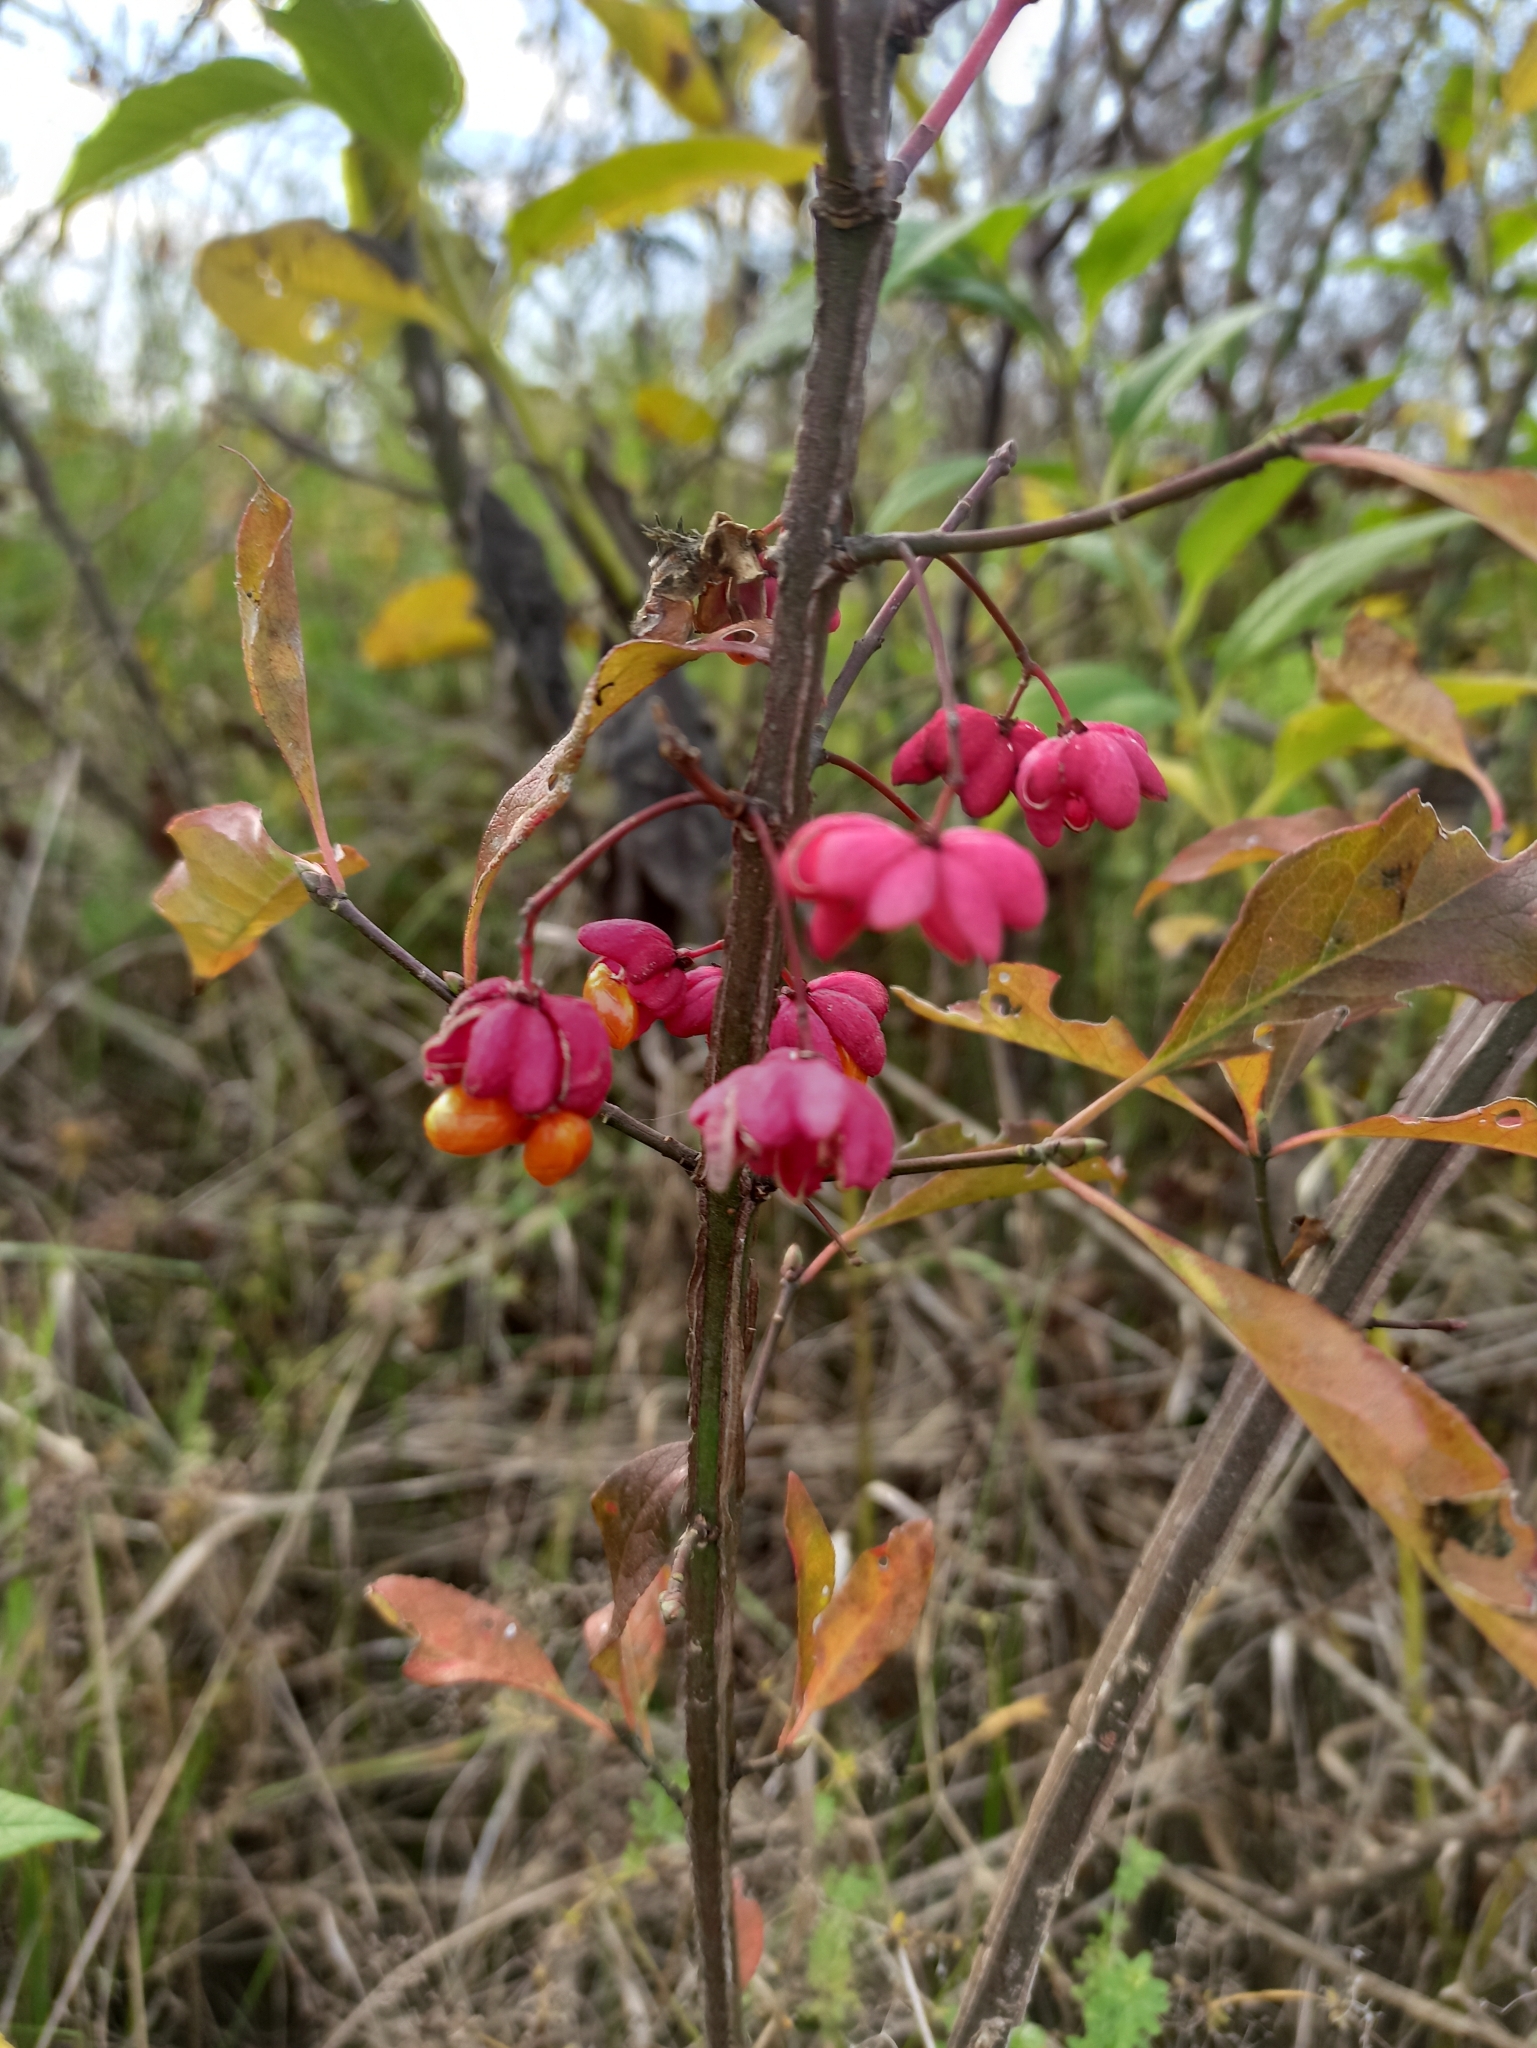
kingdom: Plantae
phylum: Tracheophyta
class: Magnoliopsida
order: Celastrales
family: Celastraceae
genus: Euonymus
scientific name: Euonymus europaeus
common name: Spindle
